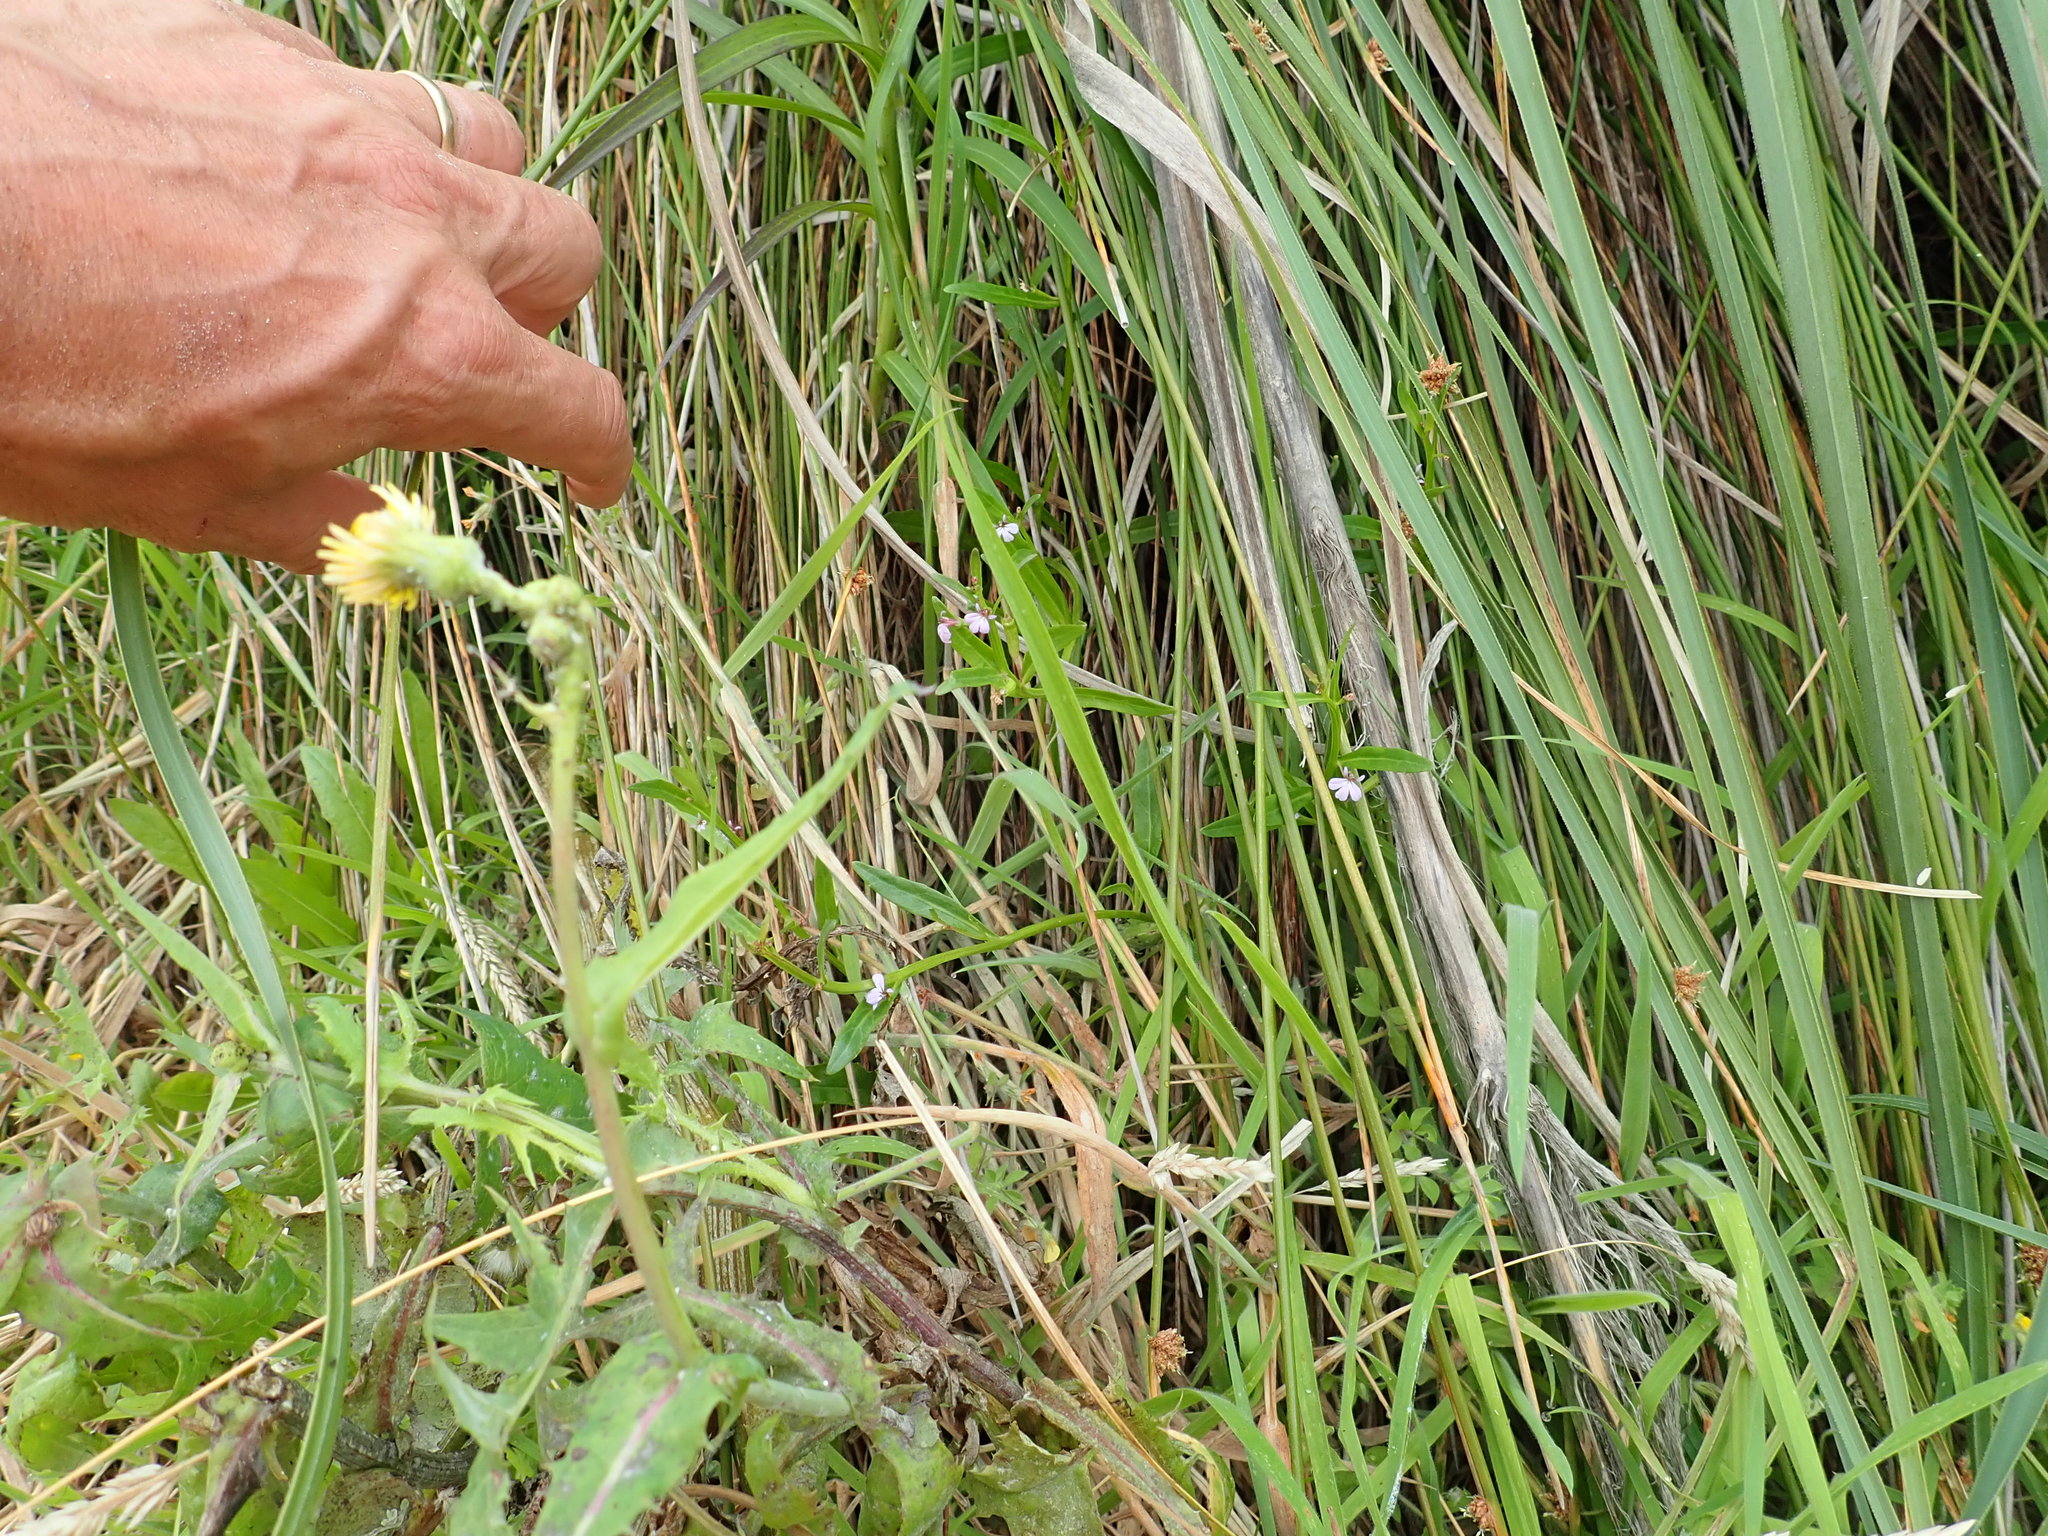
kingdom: Plantae
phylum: Tracheophyta
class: Magnoliopsida
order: Asterales
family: Campanulaceae
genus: Lobelia
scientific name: Lobelia anceps
